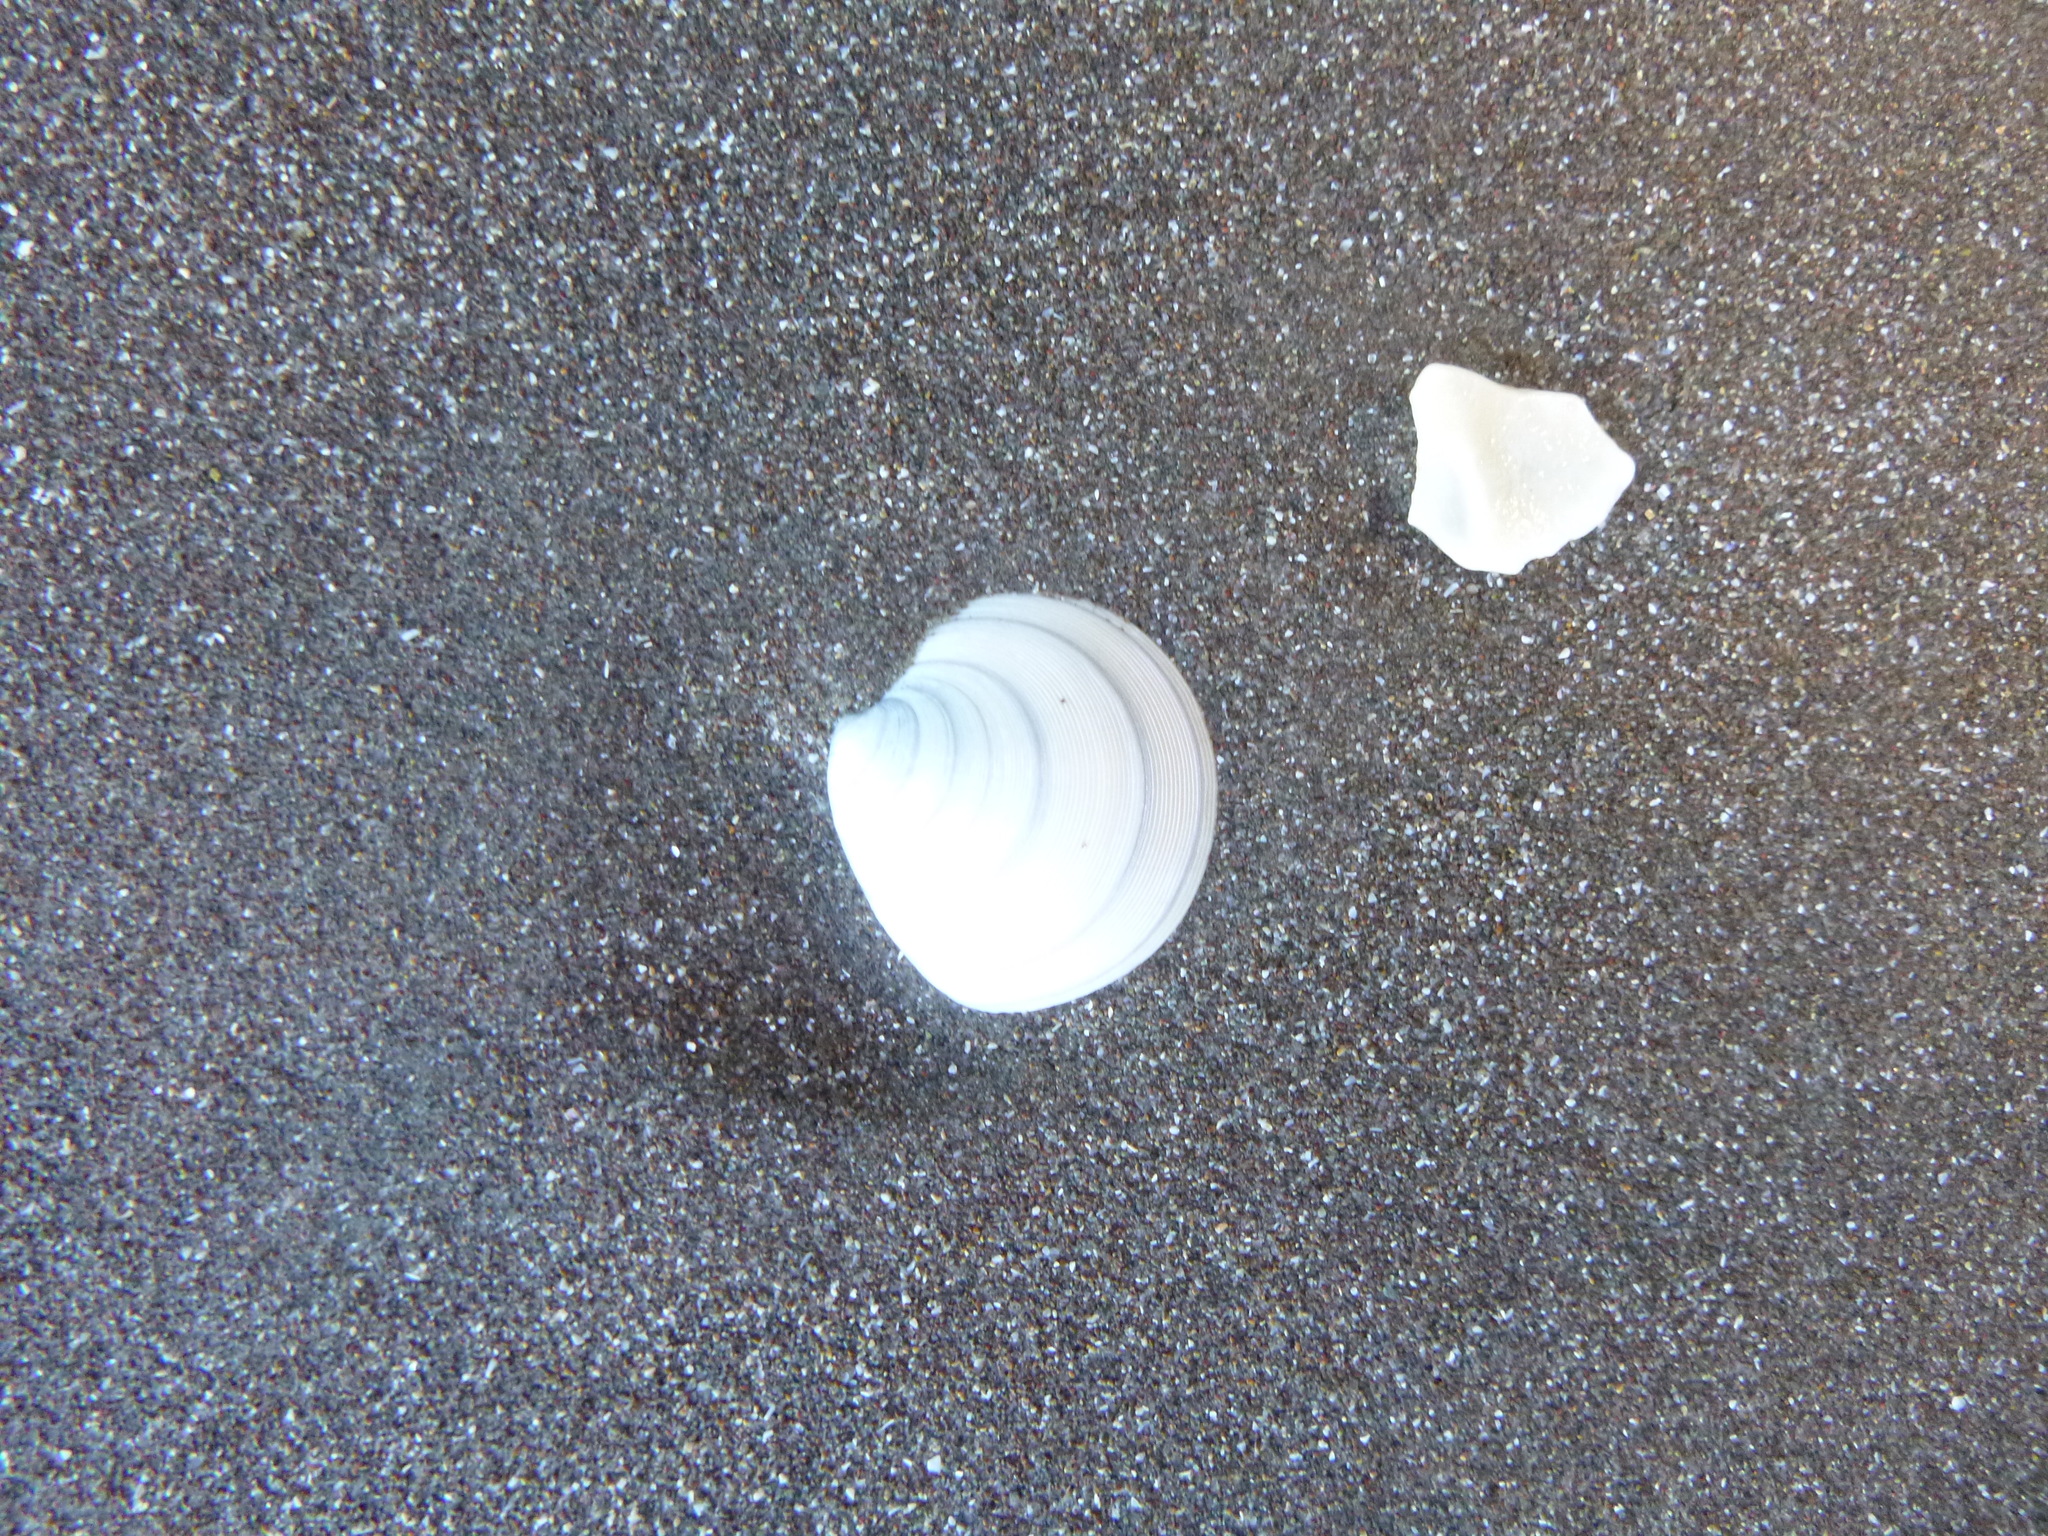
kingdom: Animalia
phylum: Mollusca
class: Bivalvia
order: Venerida
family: Veneridae
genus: Dosinia
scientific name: Dosinia subrosea
